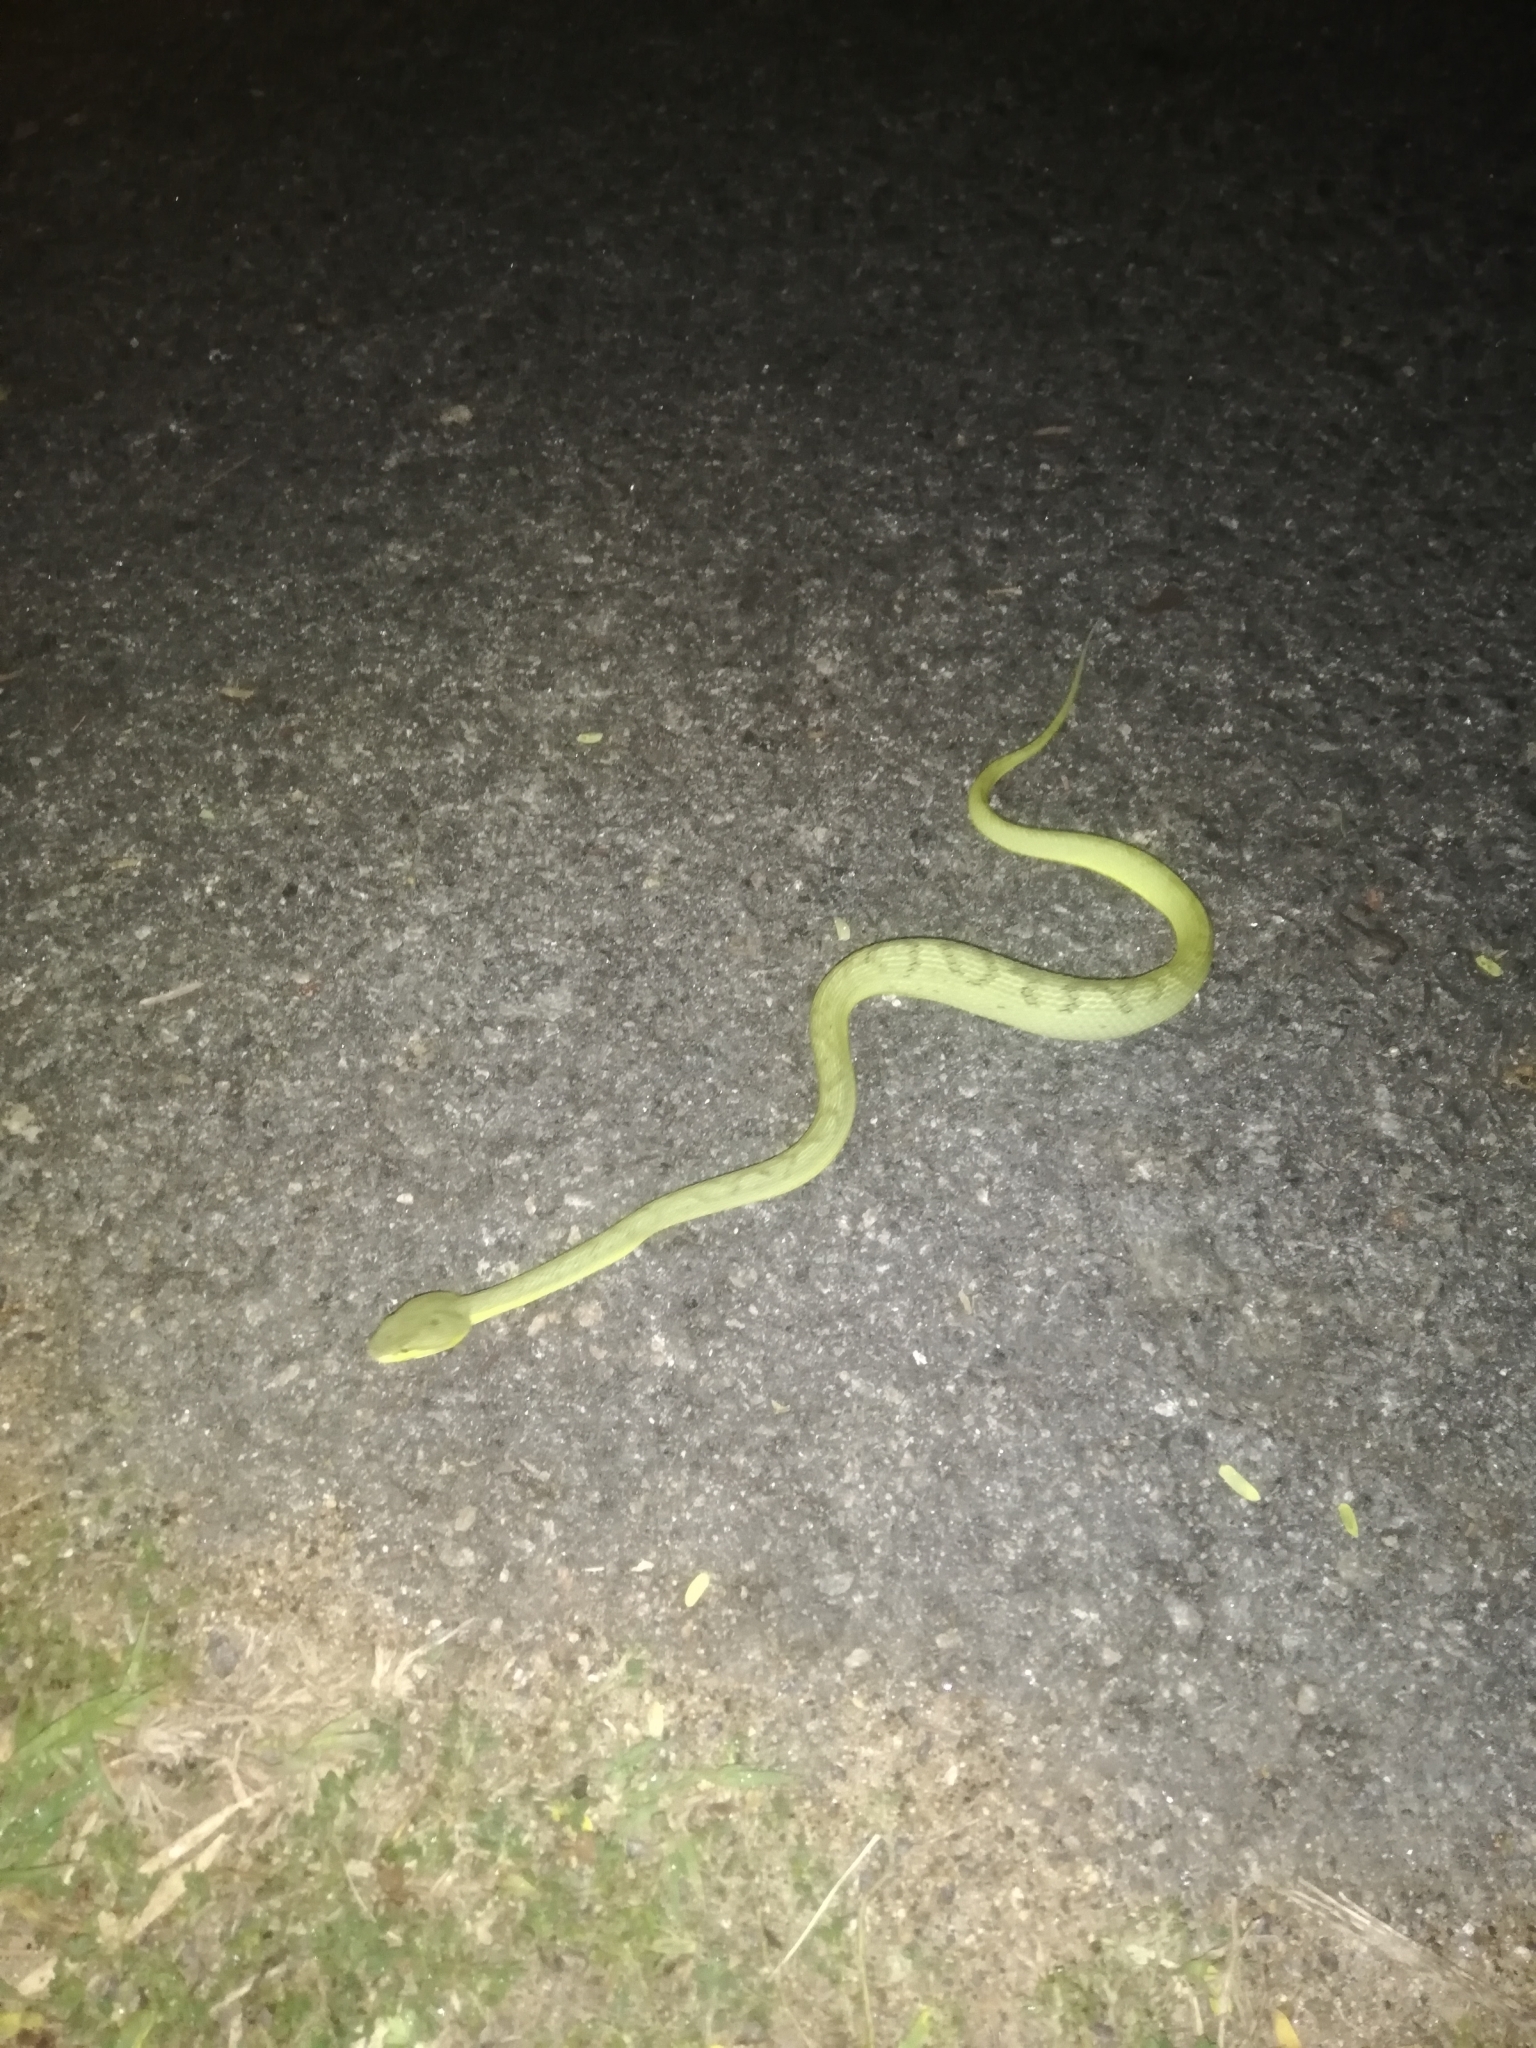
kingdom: Animalia
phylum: Chordata
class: Squamata
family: Viperidae
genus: Craspedocephalus
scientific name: Craspedocephalus gramineus
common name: Common bamboo viper
